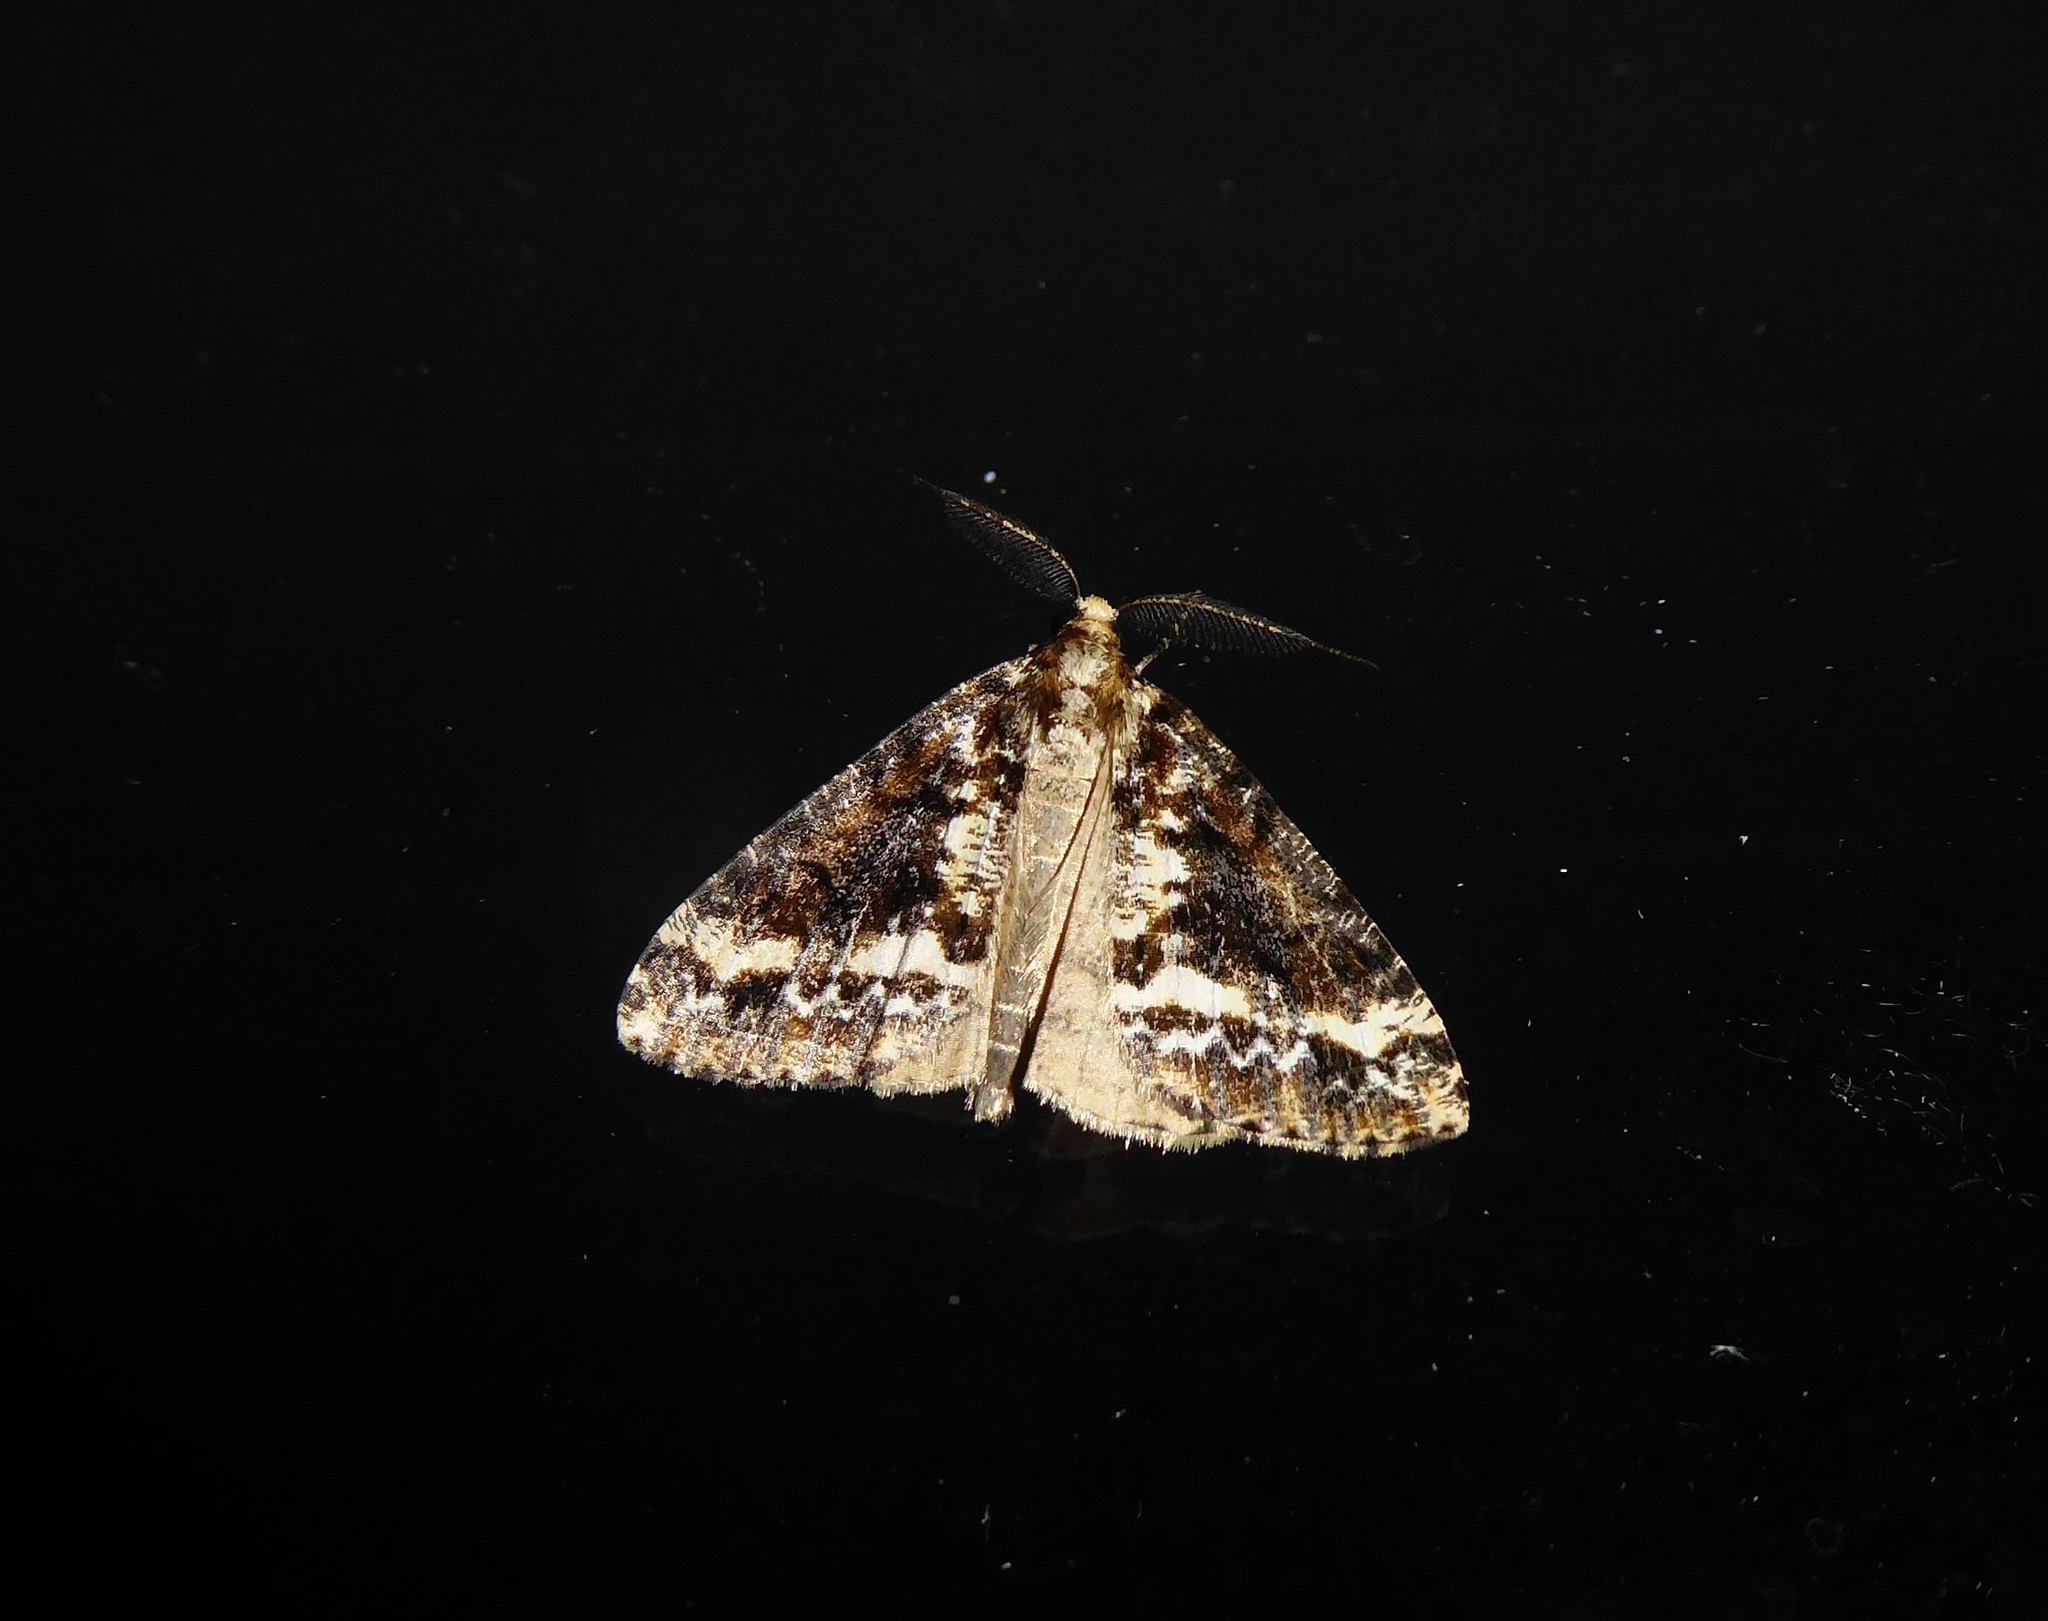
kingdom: Animalia
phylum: Arthropoda
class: Insecta
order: Lepidoptera
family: Geometridae
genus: Pseudocoremia
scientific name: Pseudocoremia leucelaea
